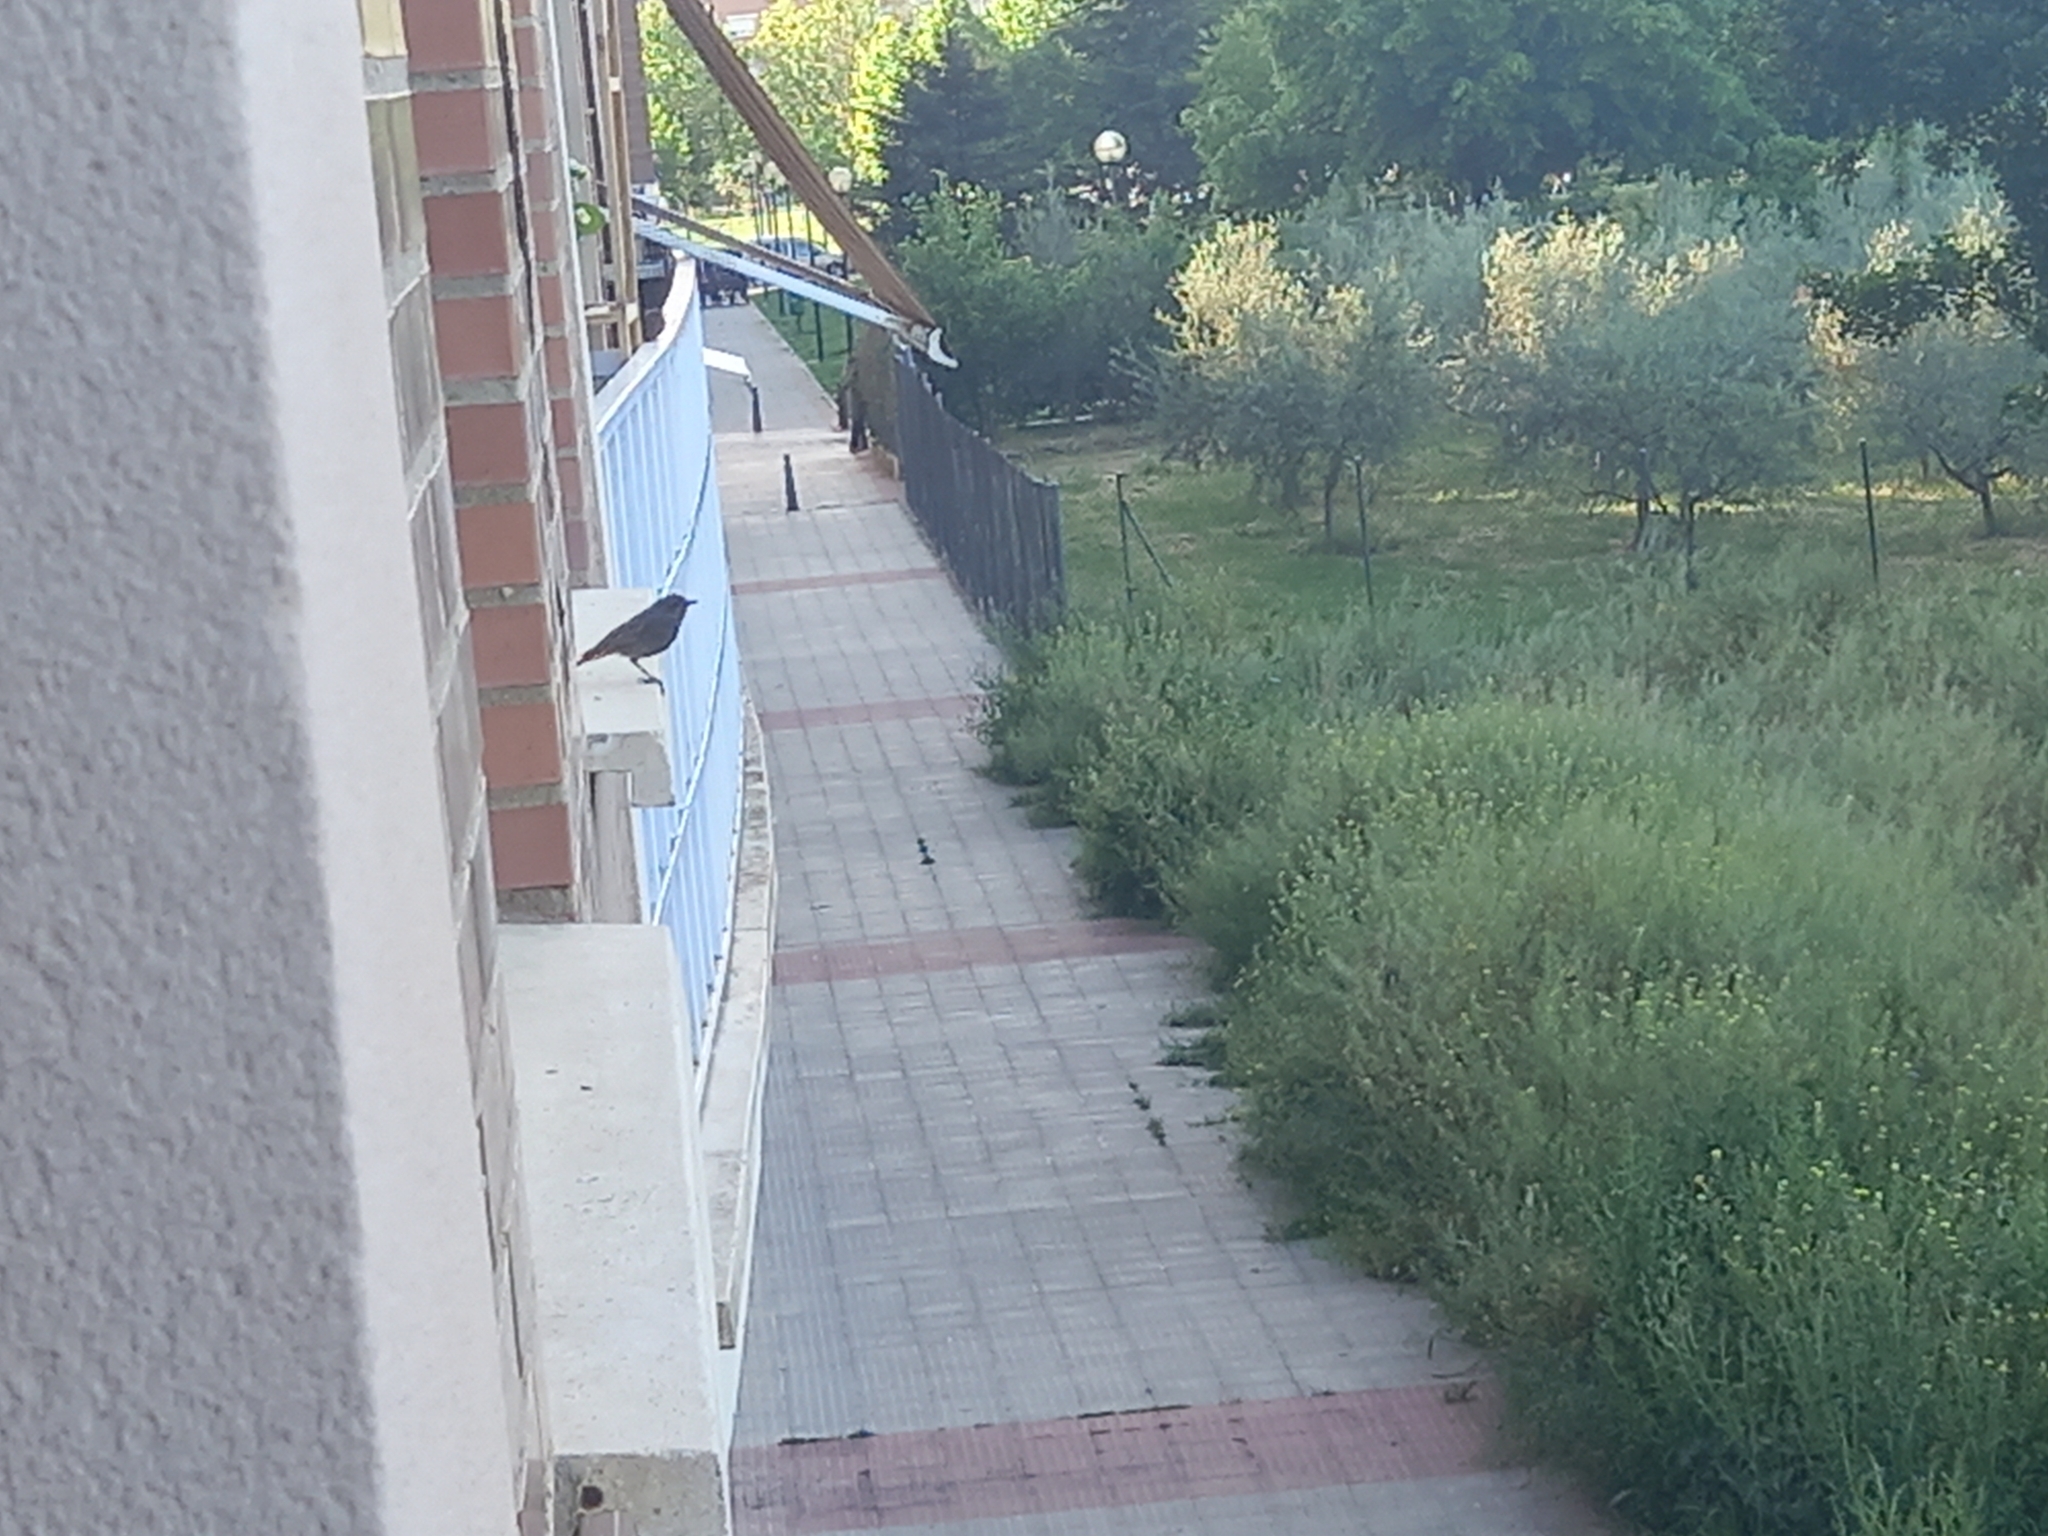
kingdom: Animalia
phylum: Chordata
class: Aves
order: Passeriformes
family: Muscicapidae
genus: Phoenicurus
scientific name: Phoenicurus ochruros
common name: Black redstart
